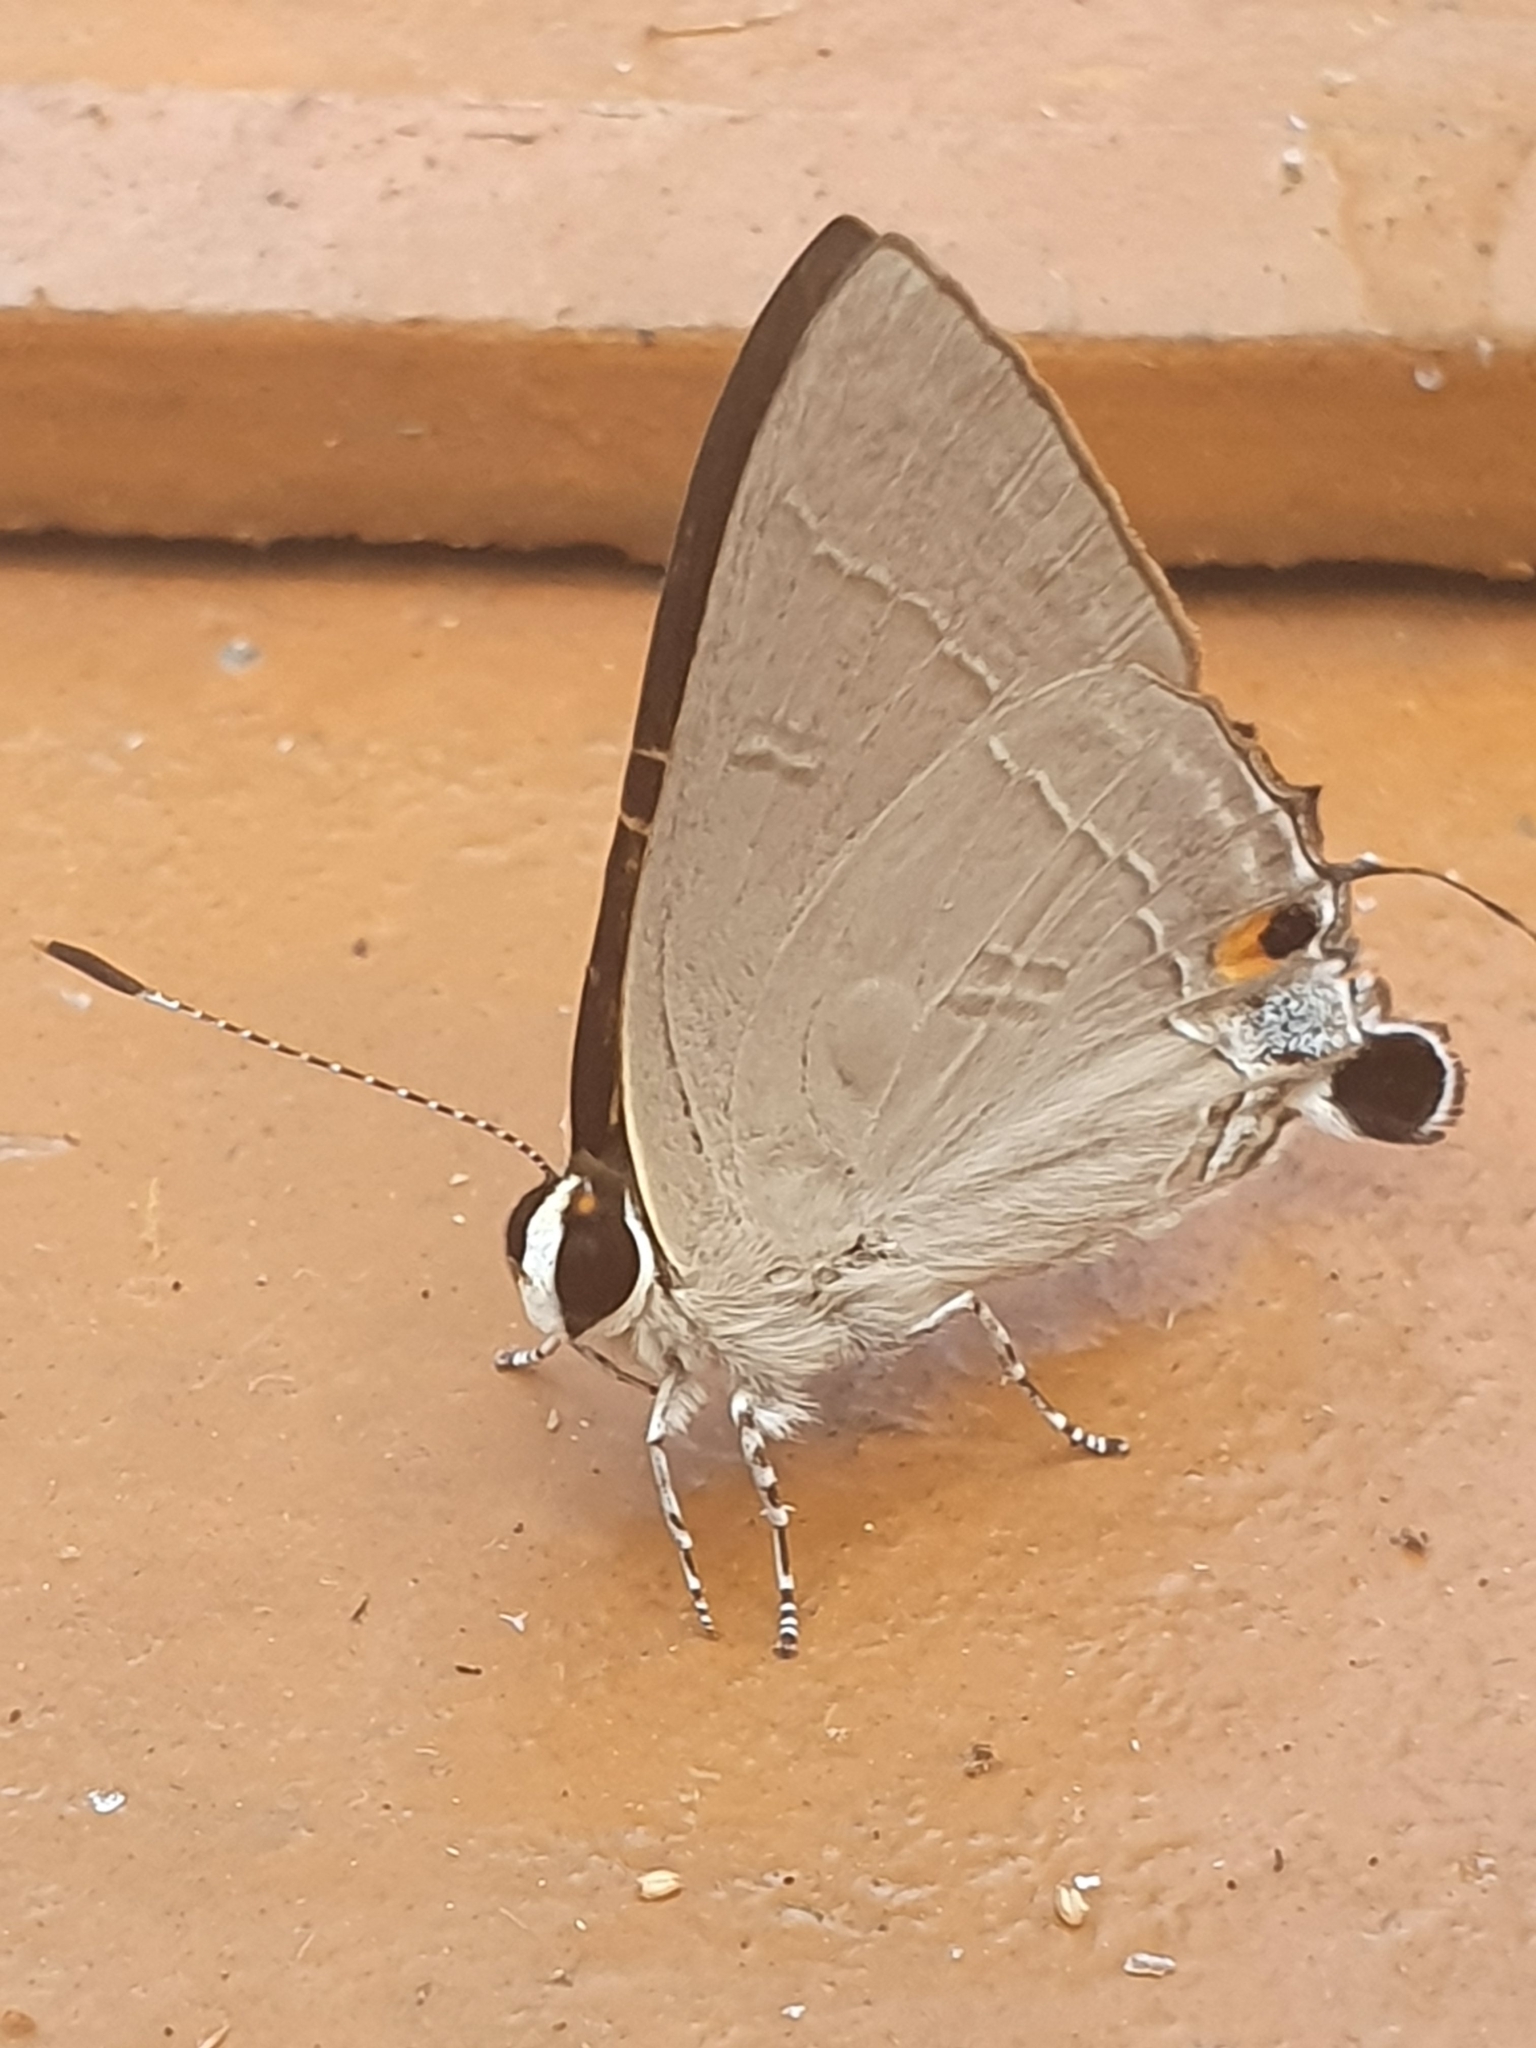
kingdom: Animalia
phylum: Arthropoda
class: Insecta
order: Lepidoptera
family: Lycaenidae
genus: Rapala
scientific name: Rapala iarbus
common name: Common red flash
